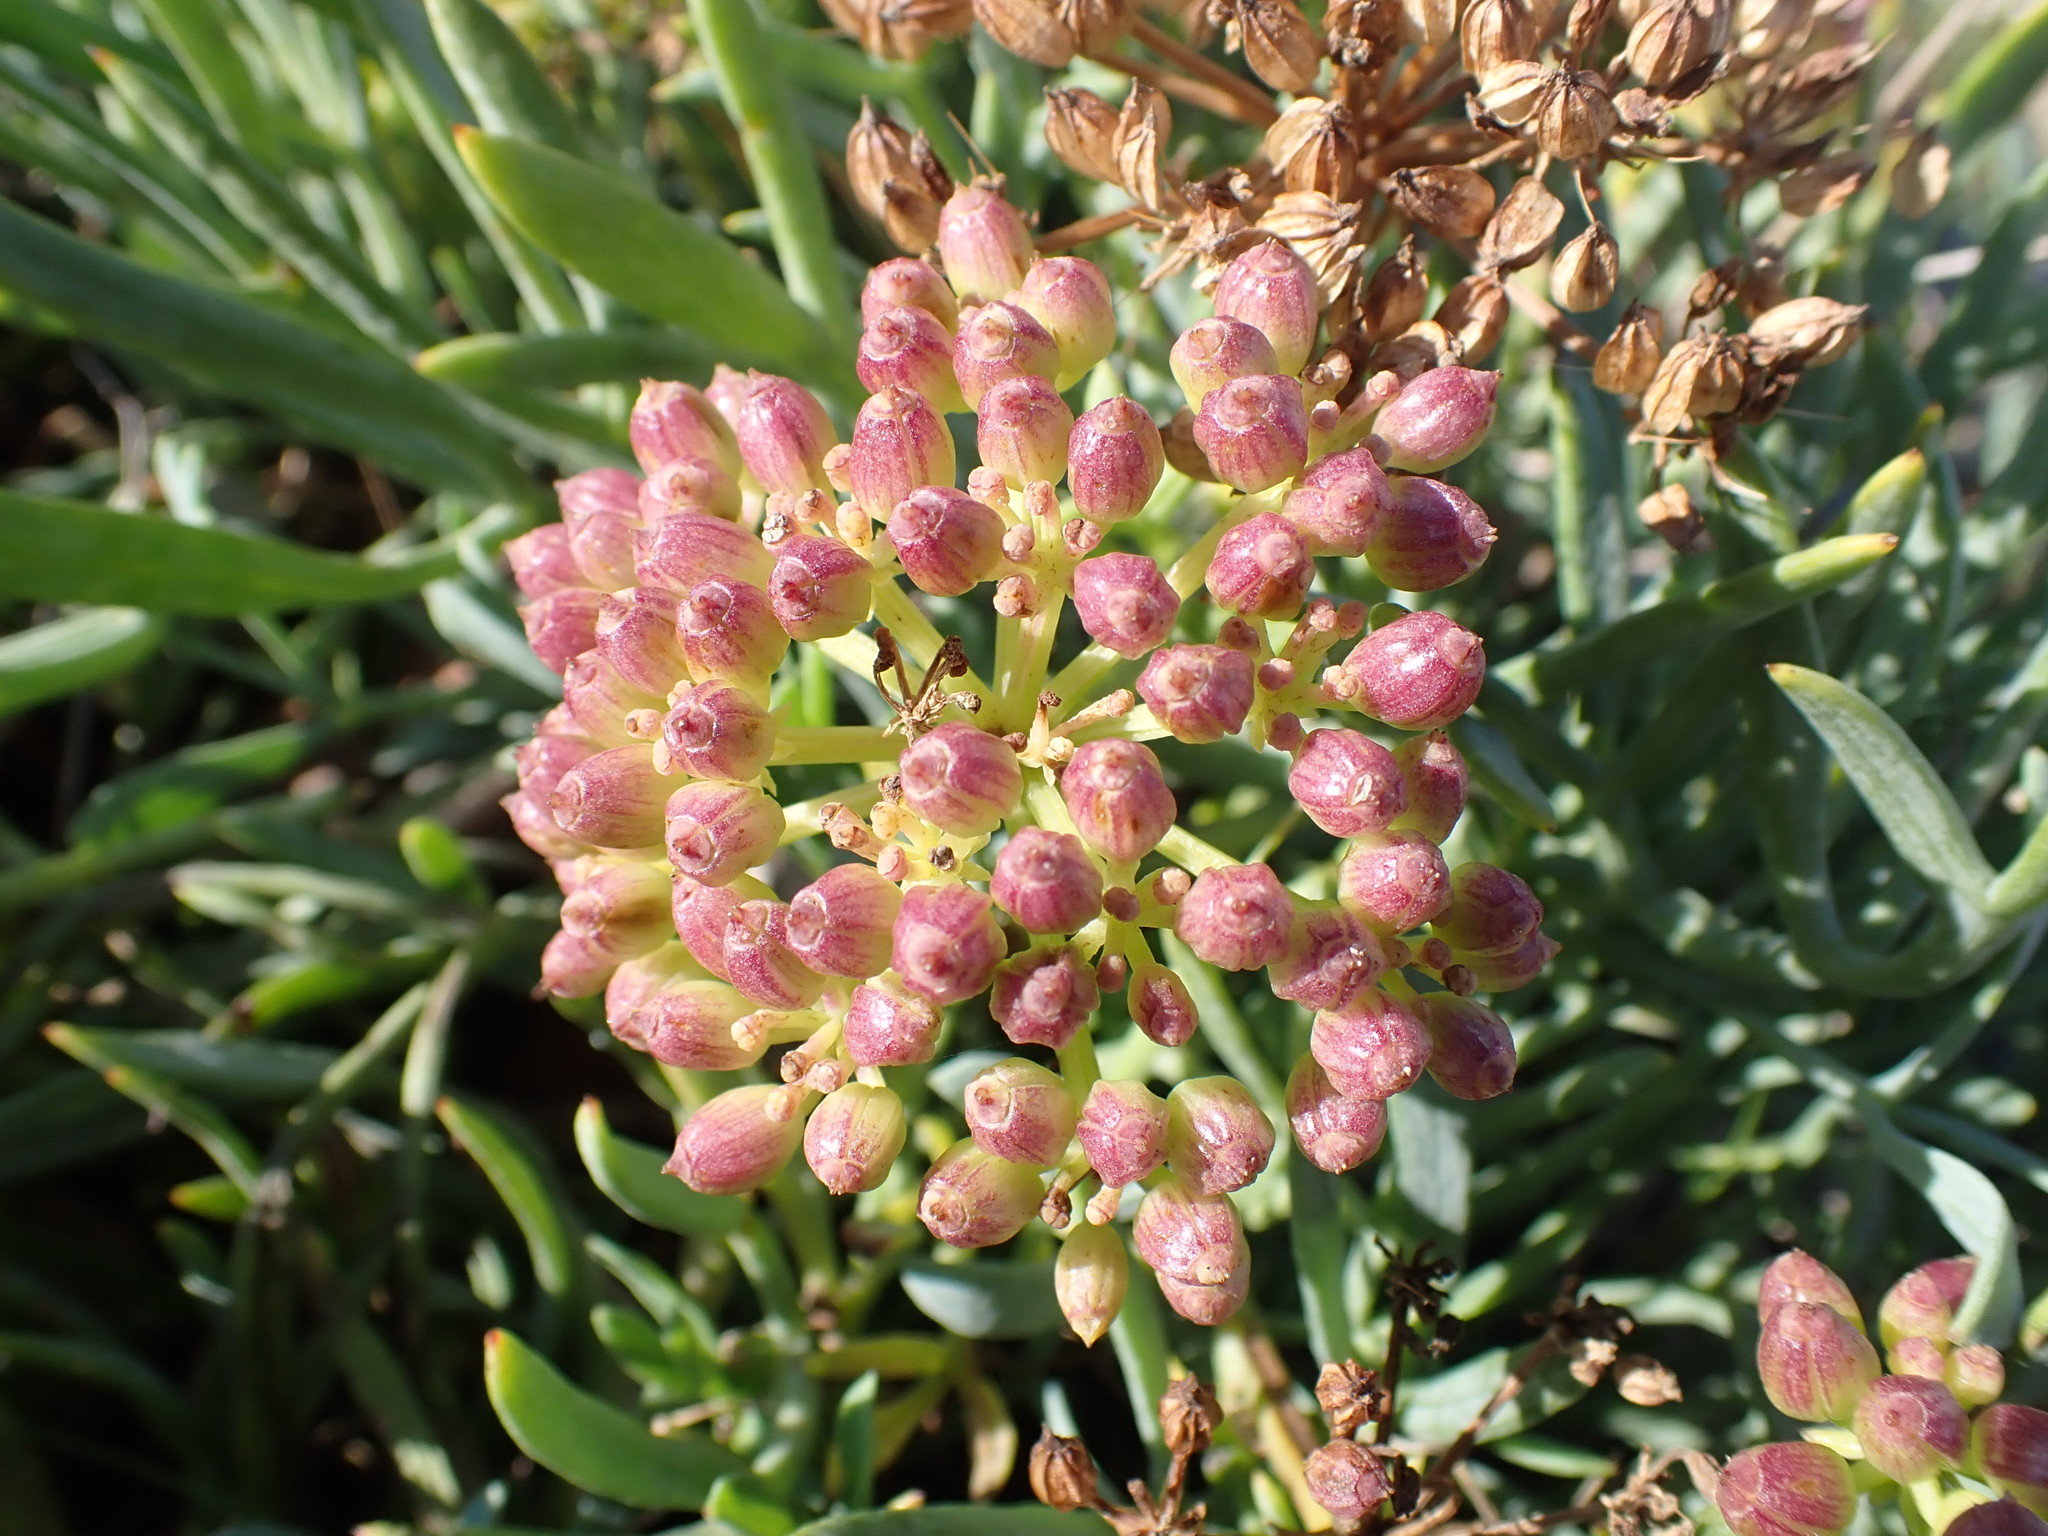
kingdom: Plantae
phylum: Tracheophyta
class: Magnoliopsida
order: Apiales
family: Apiaceae
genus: Crithmum
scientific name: Crithmum maritimum
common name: Rock samphire
